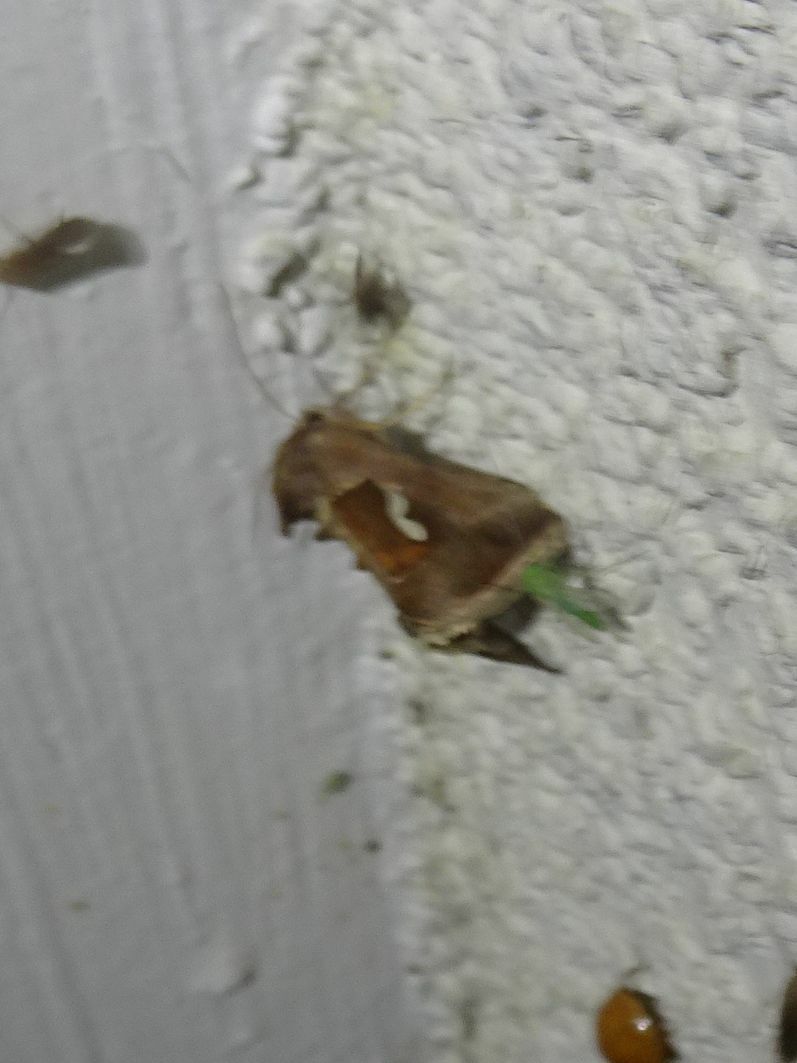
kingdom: Animalia
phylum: Arthropoda
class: Insecta
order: Lepidoptera
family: Noctuidae
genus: Macdunnoughia
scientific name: Macdunnoughia confusa
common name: Dewick's plusia
